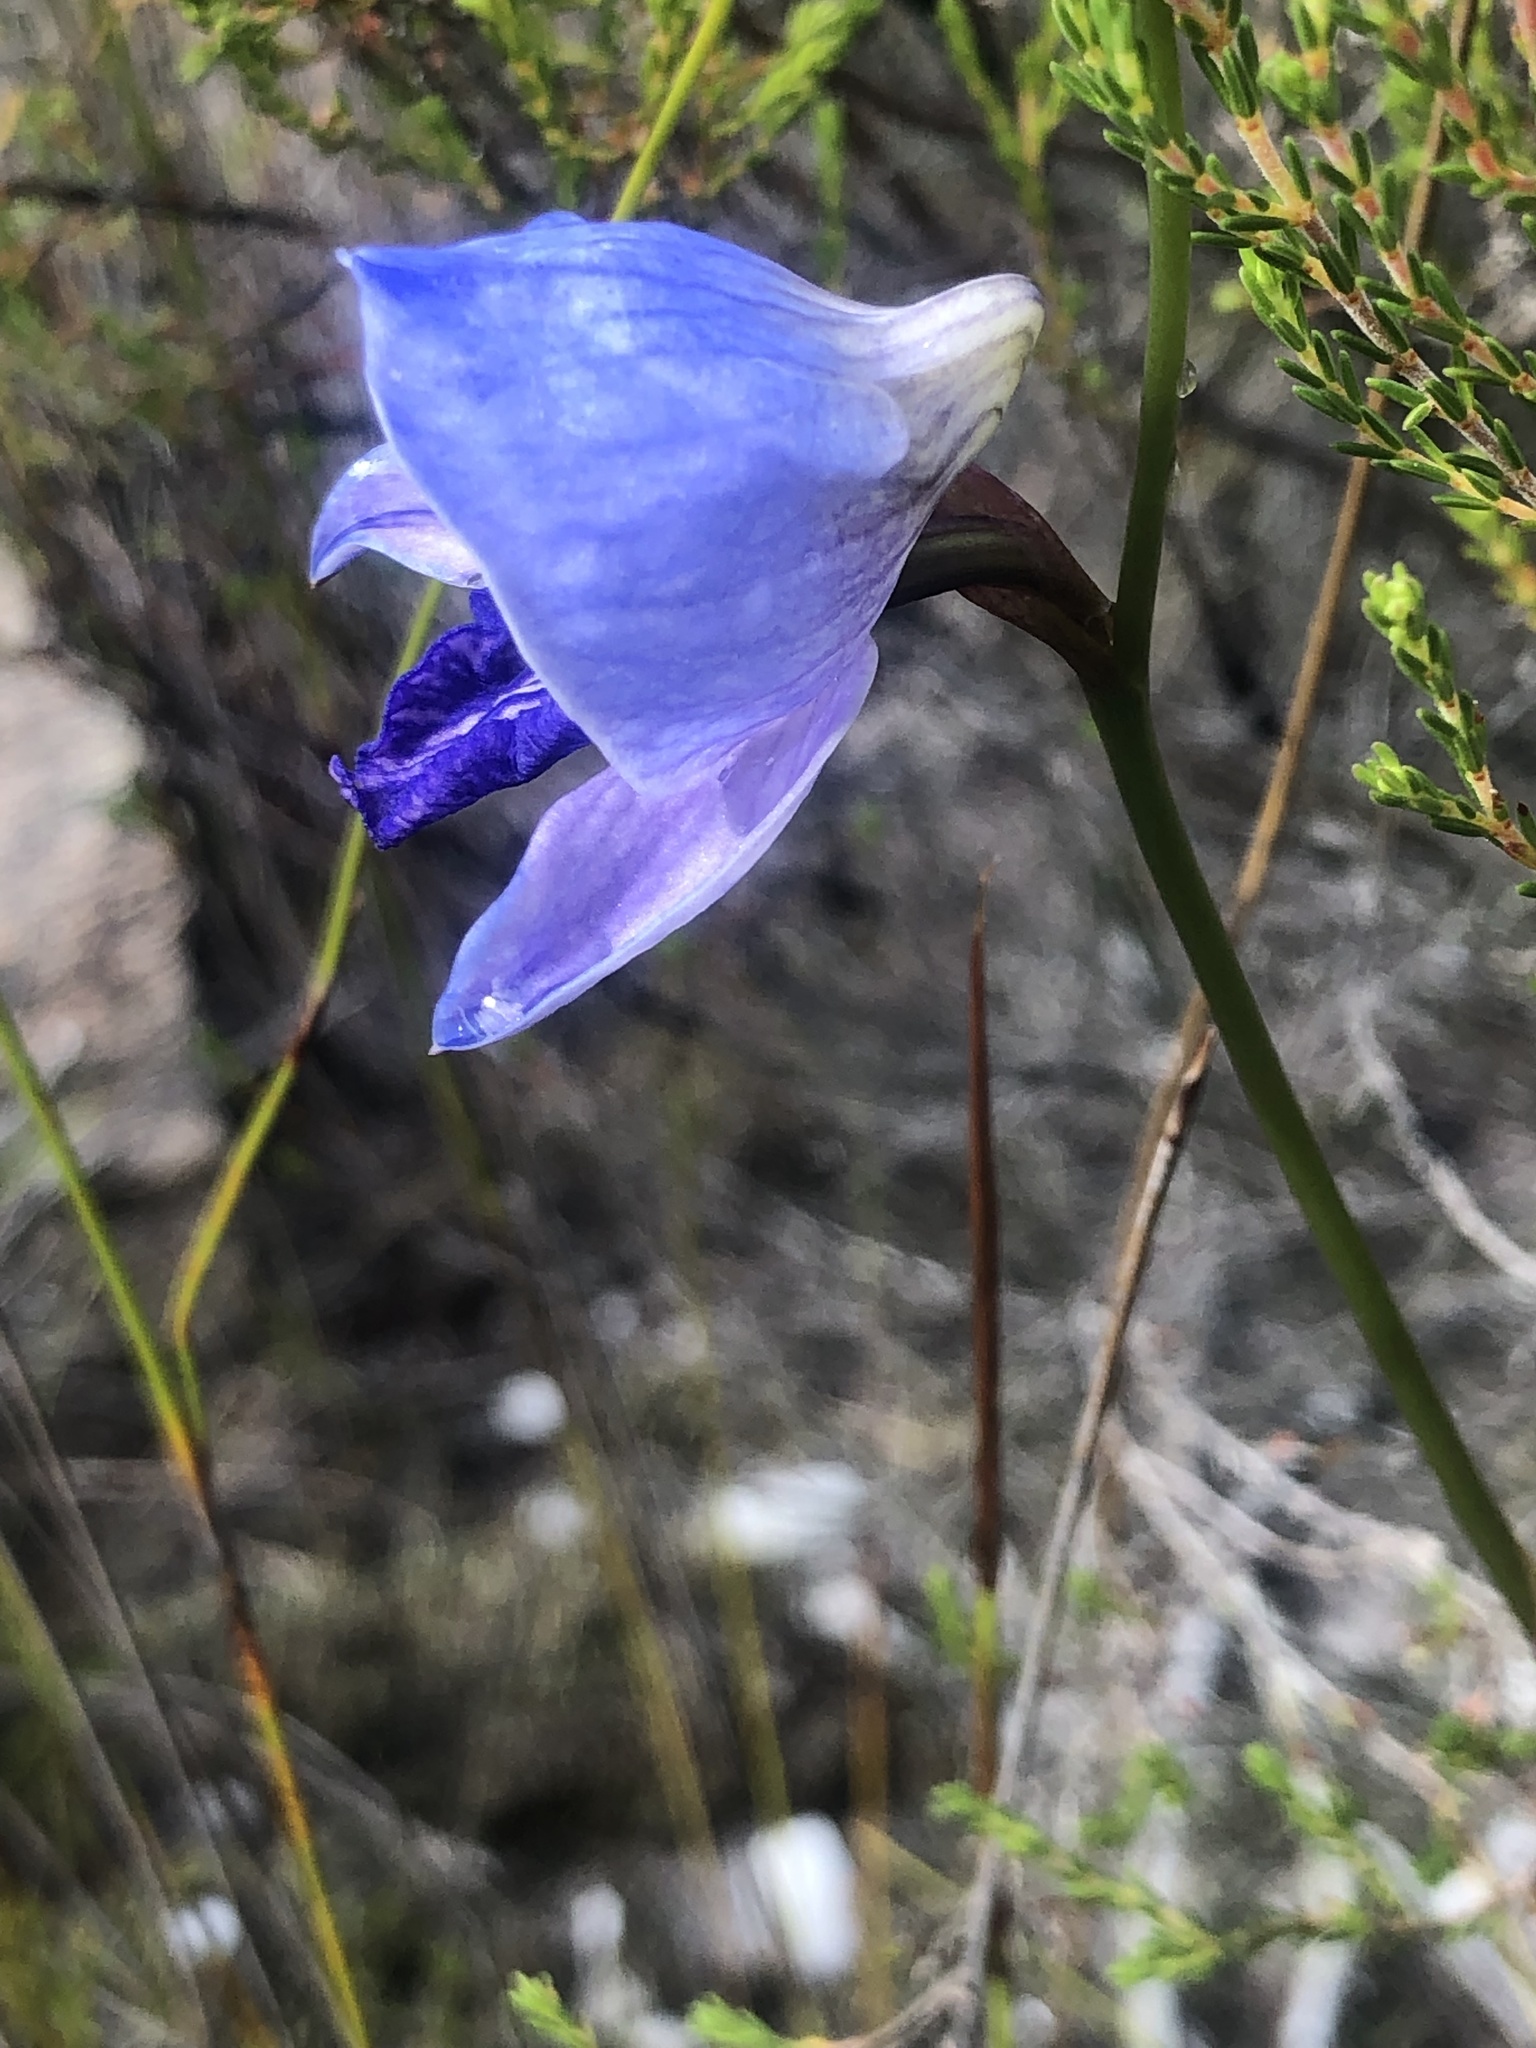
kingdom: Plantae
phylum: Tracheophyta
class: Liliopsida
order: Asparagales
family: Orchidaceae
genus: Disa
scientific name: Disa purpurascens
